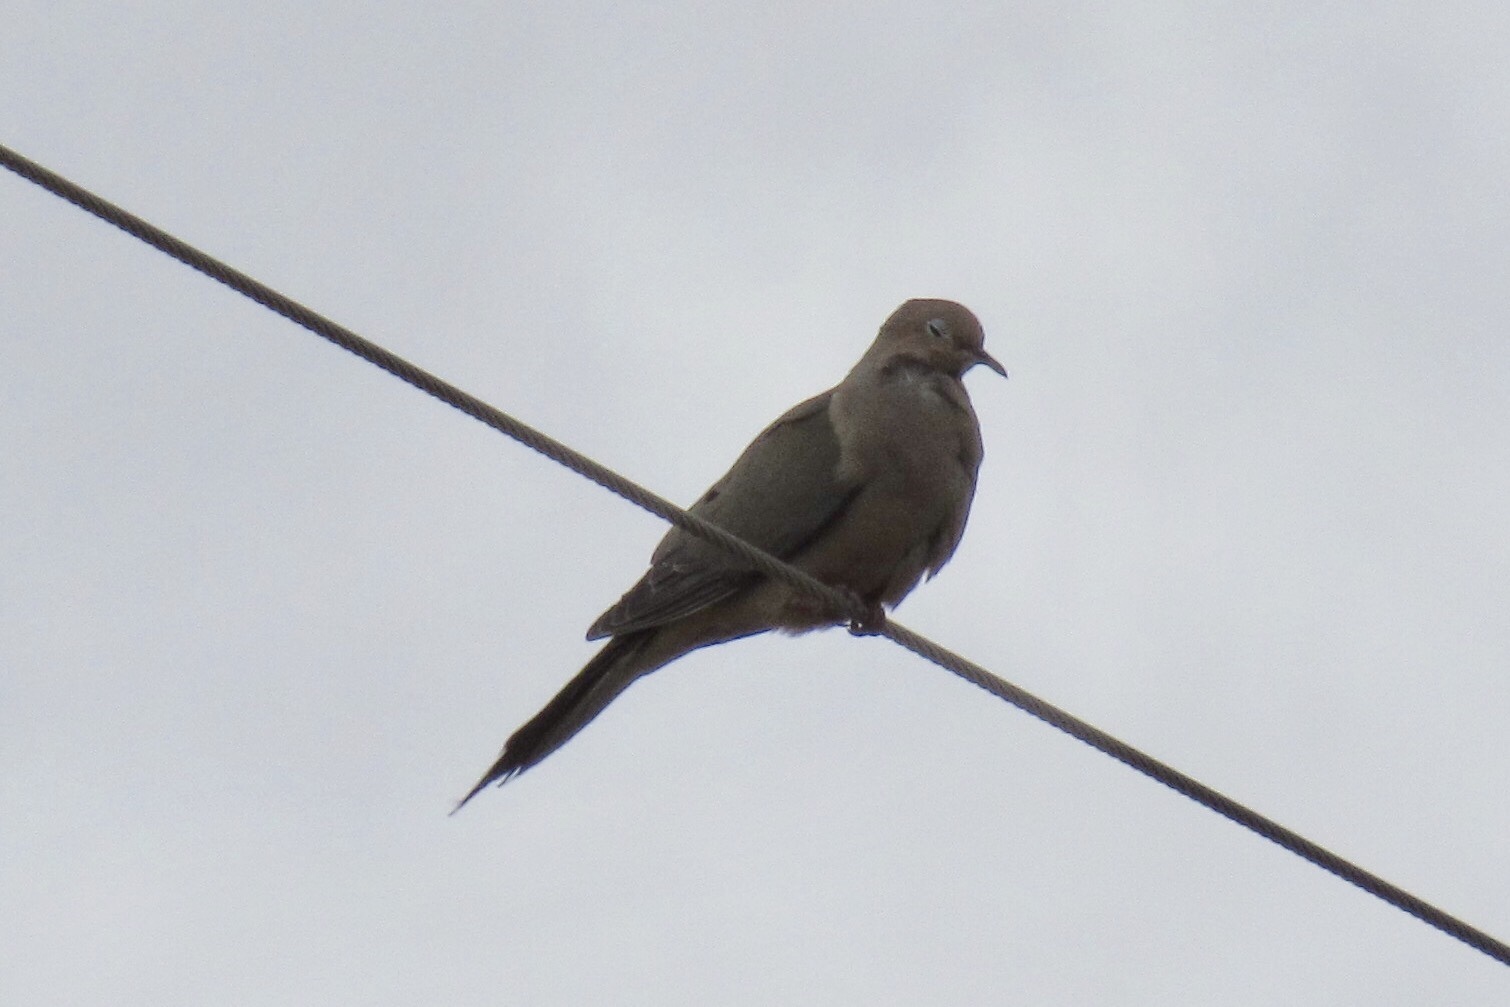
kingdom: Animalia
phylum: Chordata
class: Aves
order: Columbiformes
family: Columbidae
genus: Zenaida
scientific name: Zenaida macroura
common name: Mourning dove
